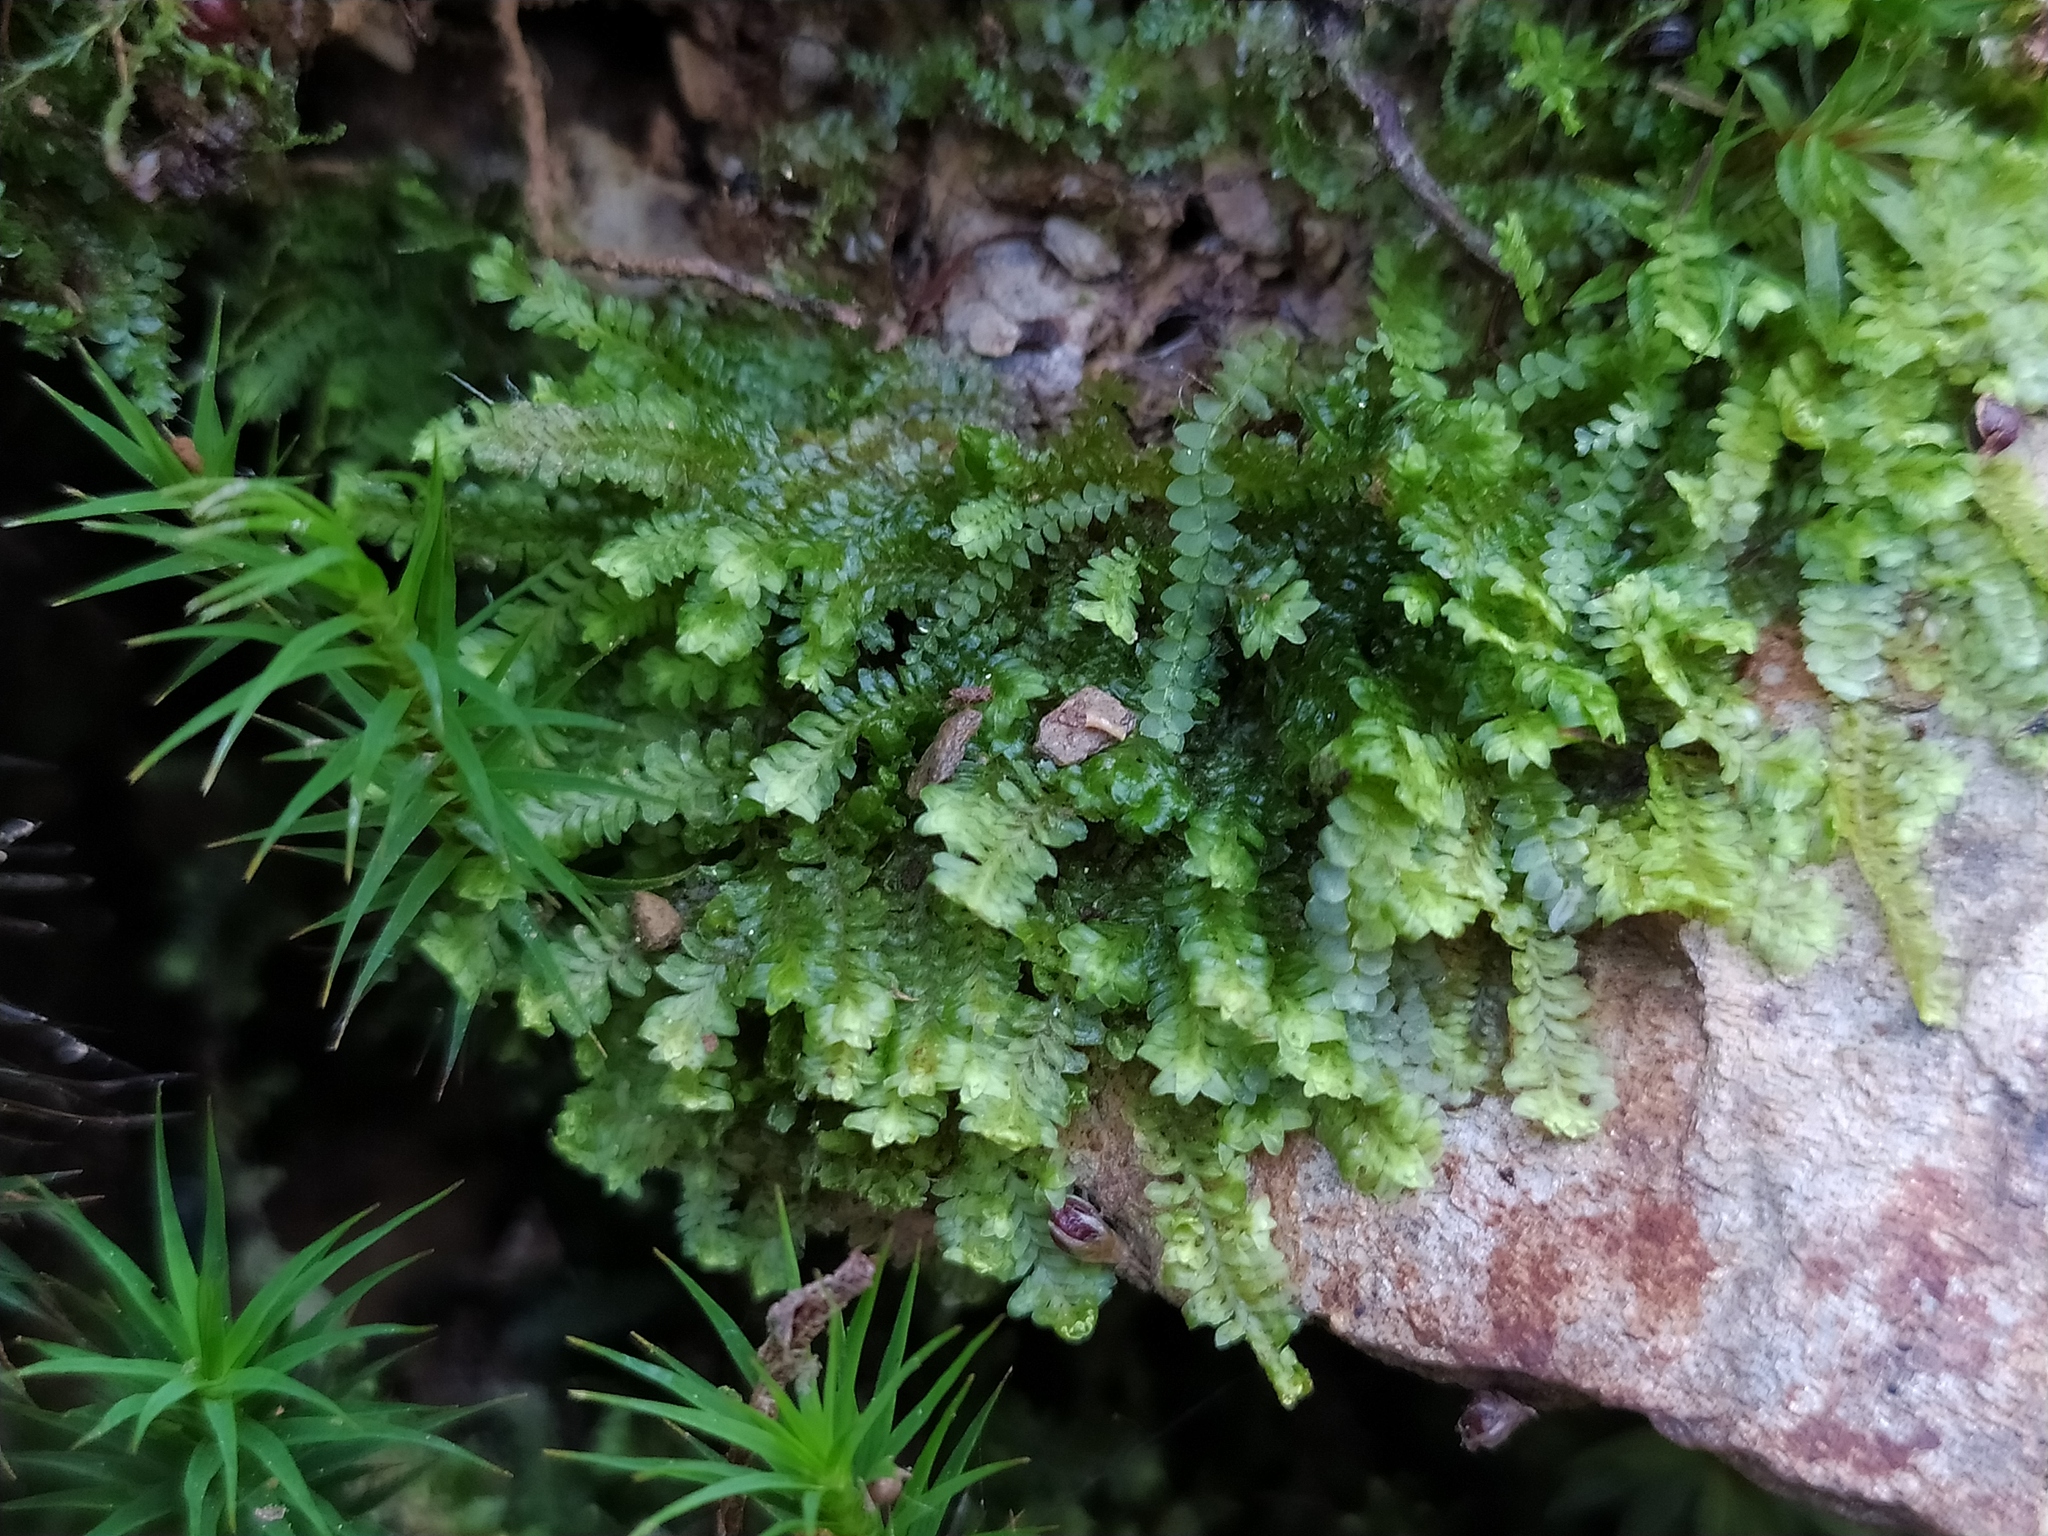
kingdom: Plantae
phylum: Marchantiophyta
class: Jungermanniopsida
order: Jungermanniales
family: Scapaniaceae
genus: Diplophyllum
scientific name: Diplophyllum albicans
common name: White earwort
